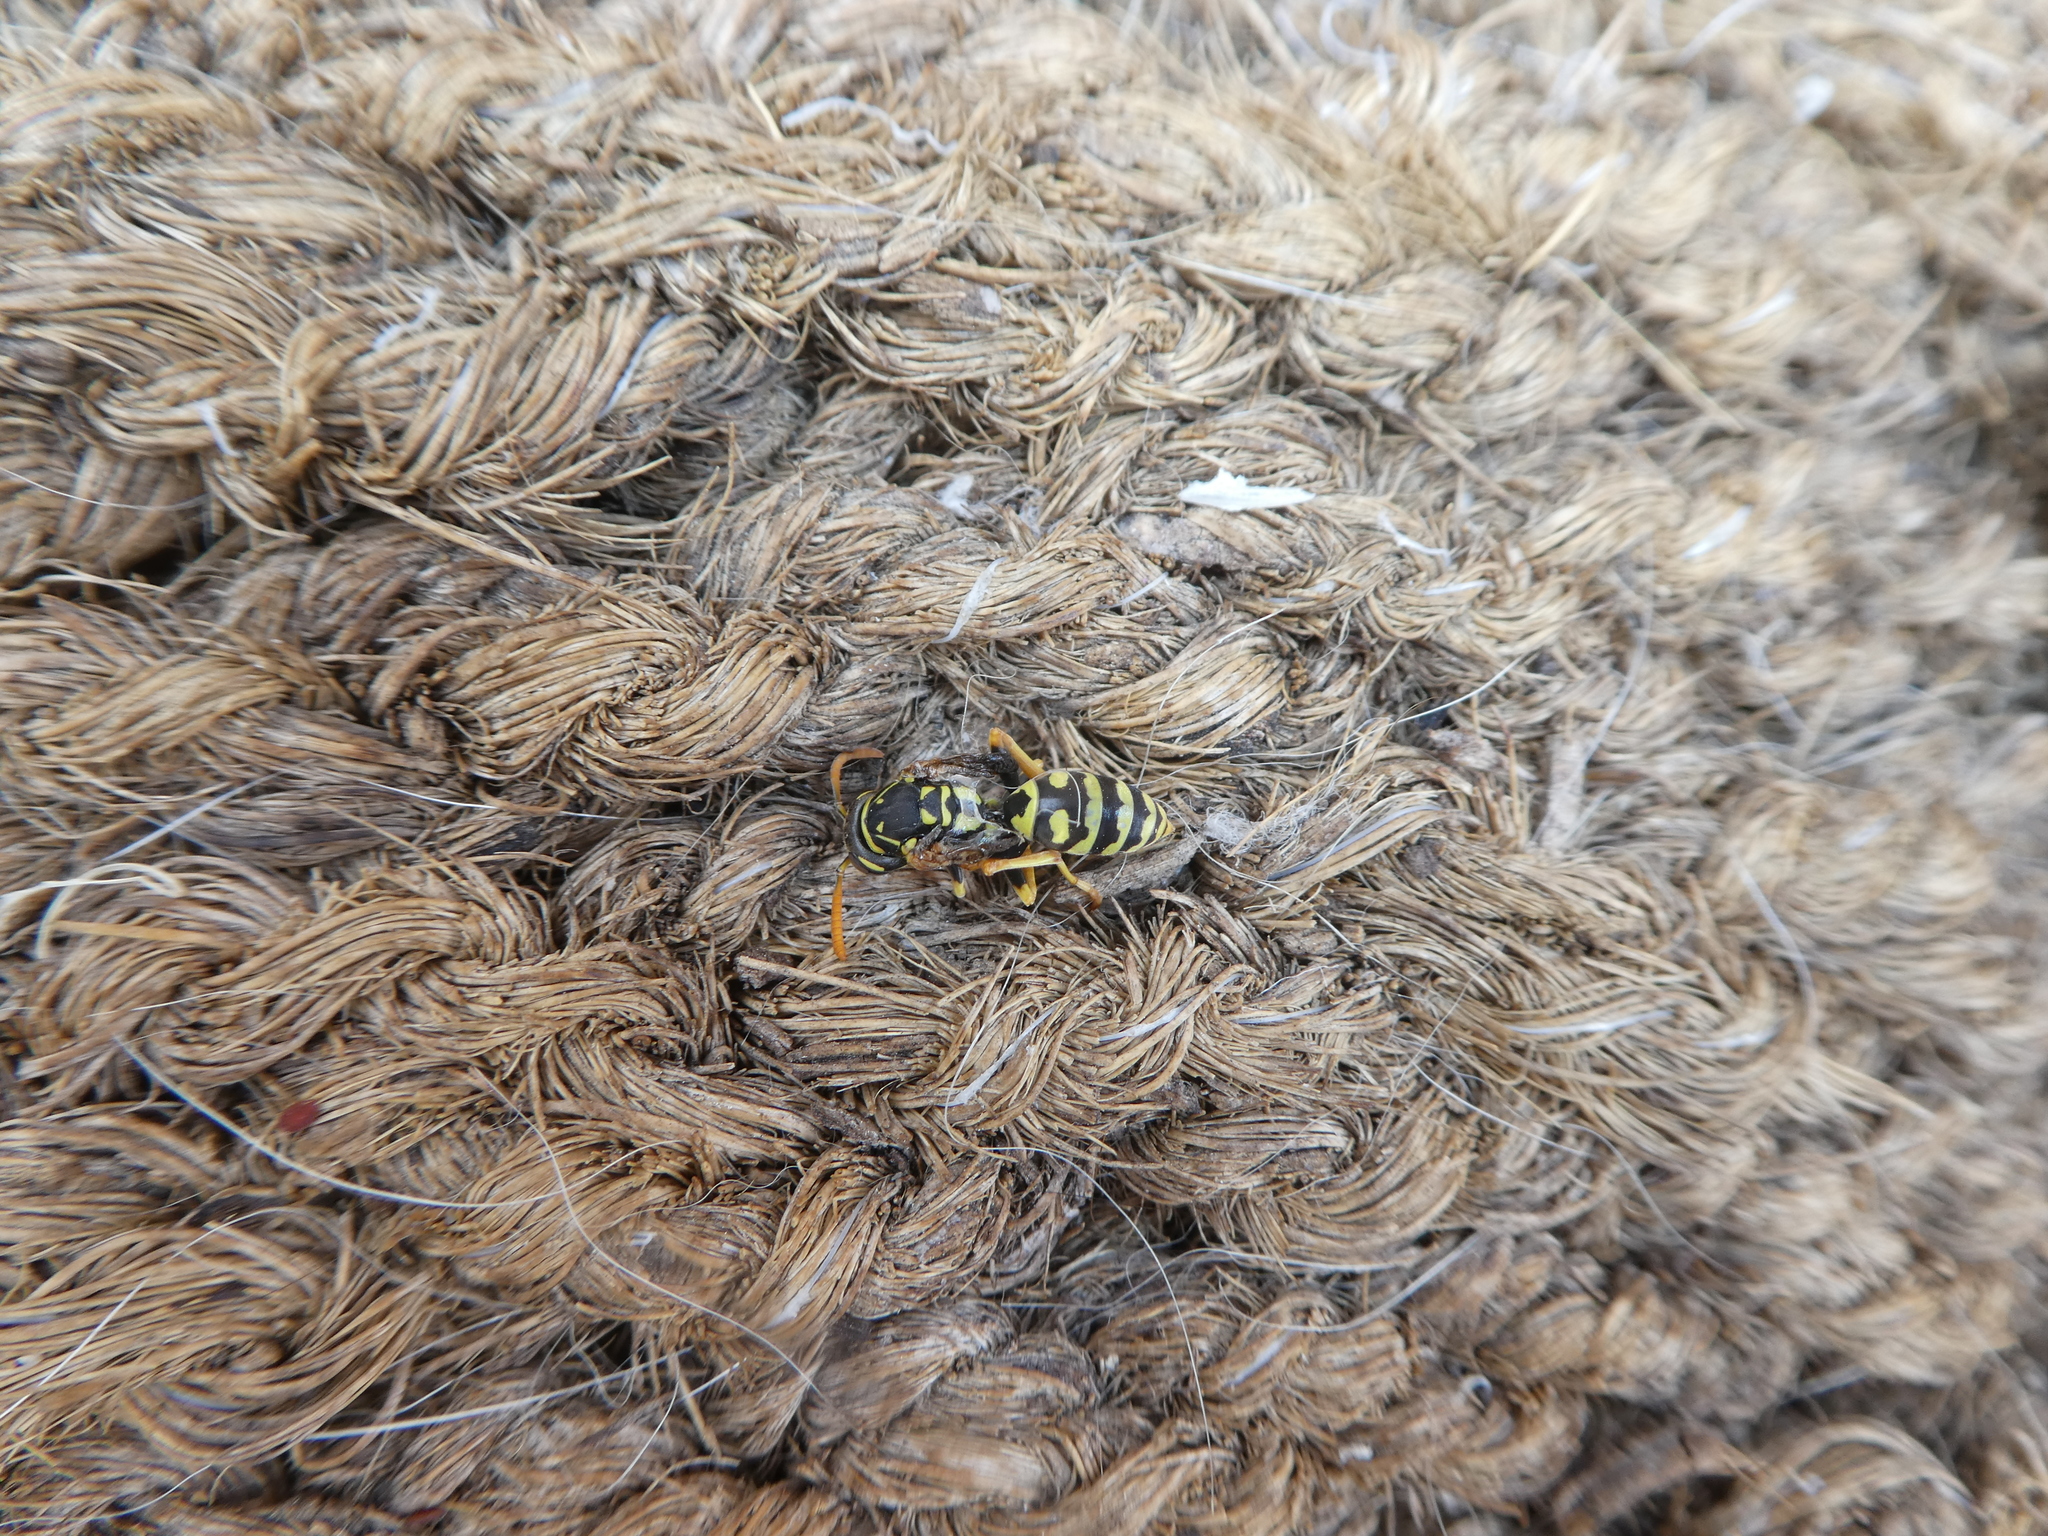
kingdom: Animalia
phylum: Arthropoda
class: Insecta
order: Hymenoptera
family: Eumenidae
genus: Polistes
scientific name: Polistes dominula
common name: Paper wasp
